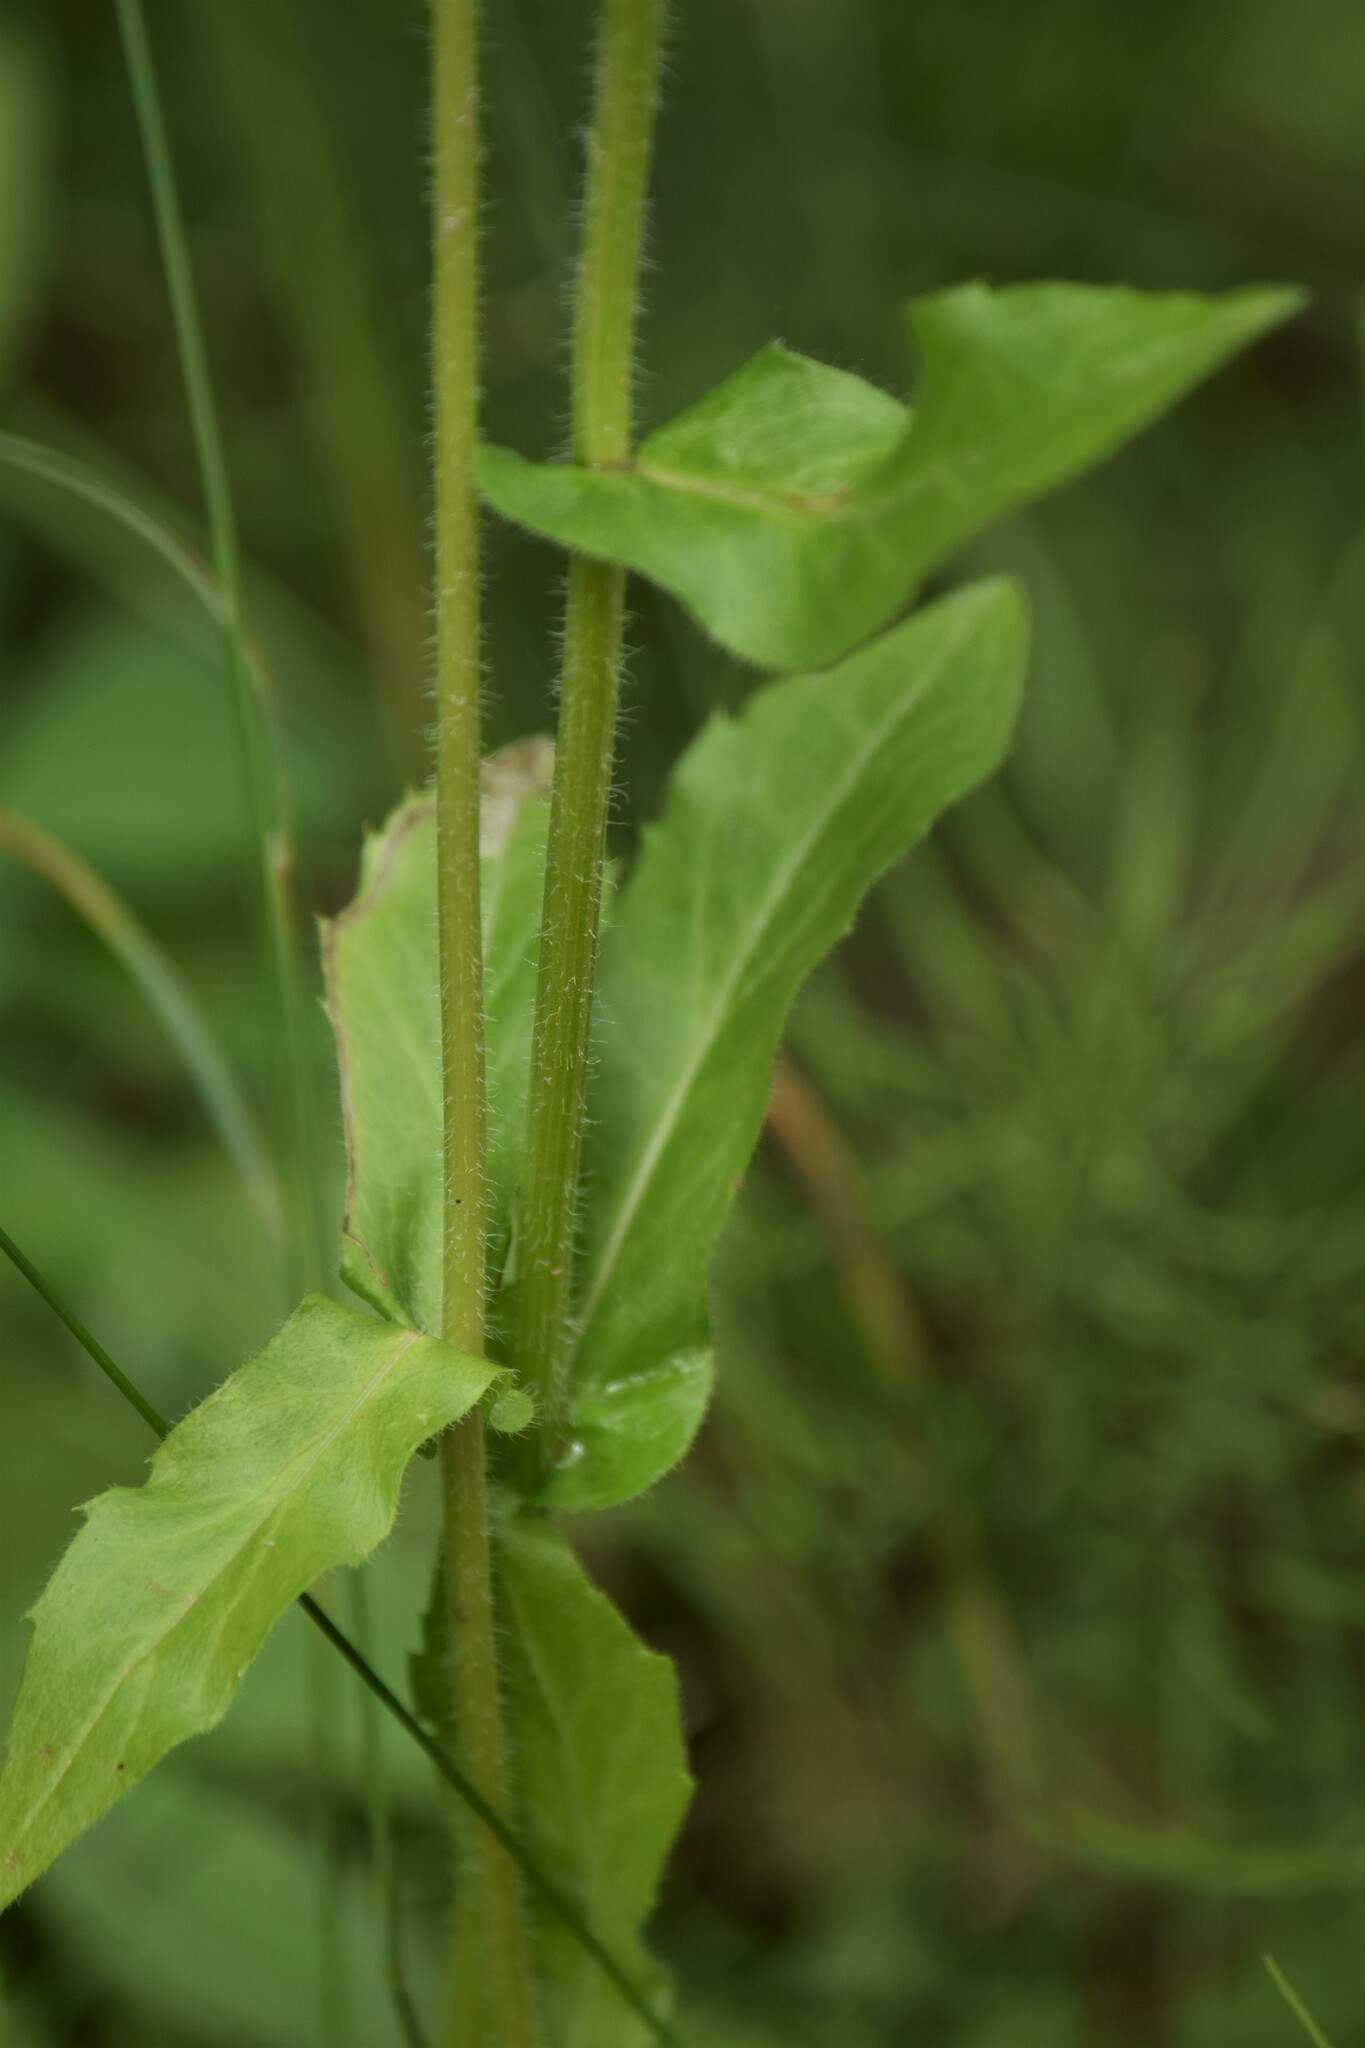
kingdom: Plantae
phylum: Tracheophyta
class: Magnoliopsida
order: Asterales
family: Asteraceae
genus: Erigeron
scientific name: Erigeron philadelphicus
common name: Robin's-plantain
